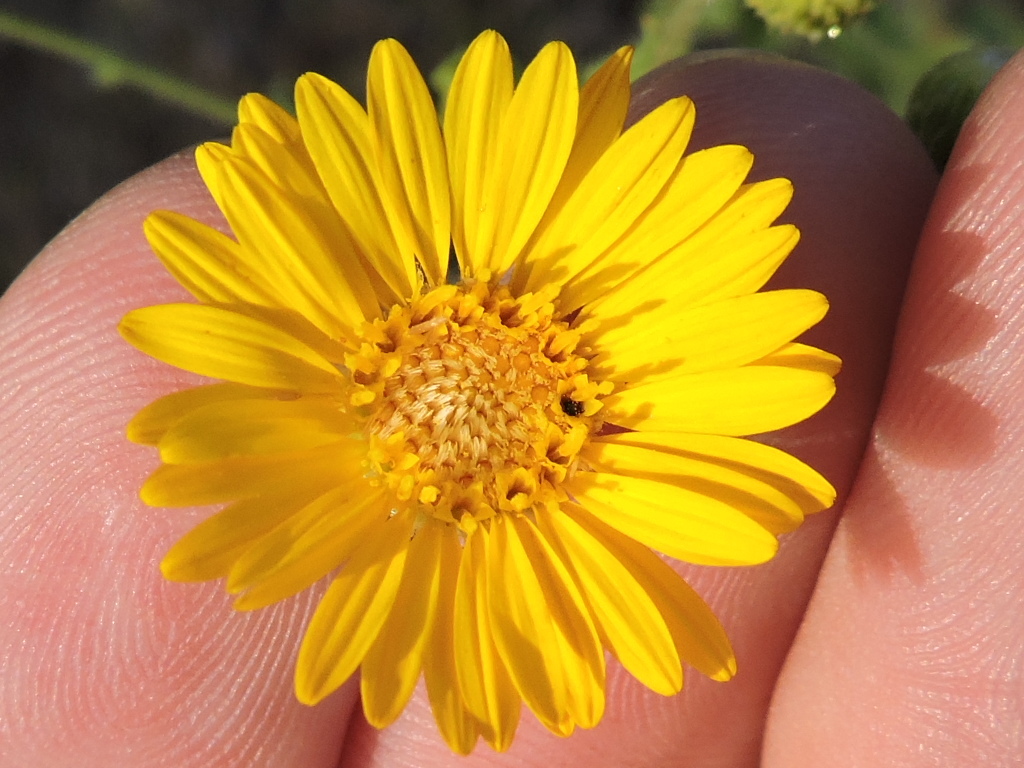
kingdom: Plantae
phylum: Tracheophyta
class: Magnoliopsida
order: Asterales
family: Asteraceae
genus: Heterotheca
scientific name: Heterotheca subaxillaris
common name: Camphorweed
